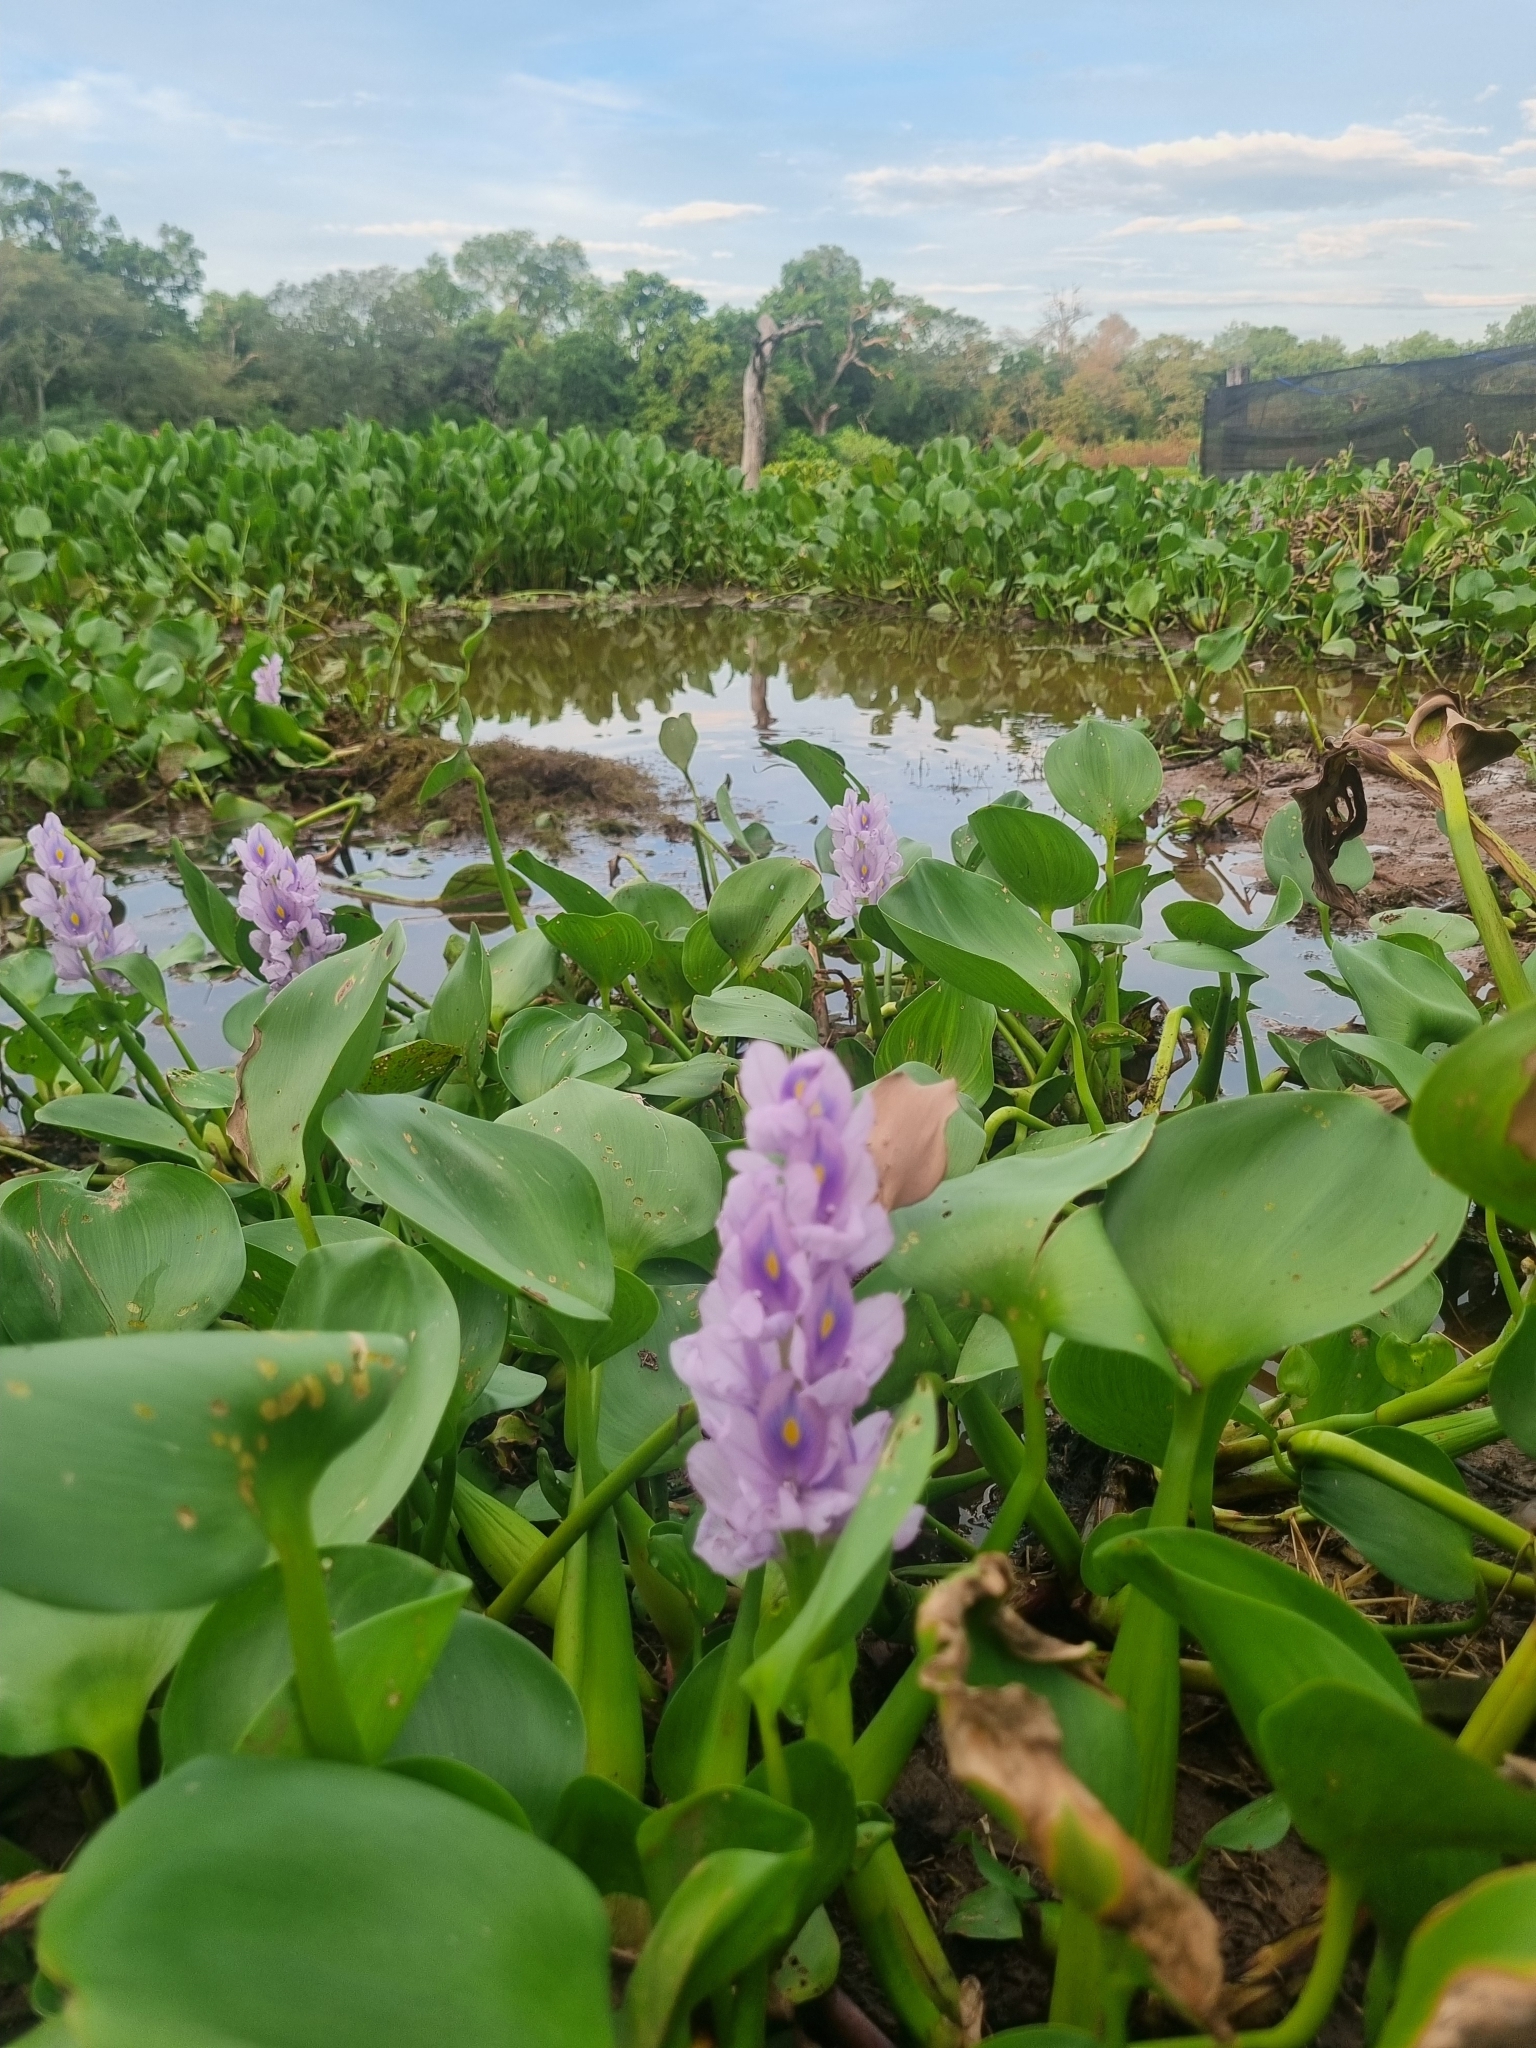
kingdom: Plantae
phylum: Tracheophyta
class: Liliopsida
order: Commelinales
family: Pontederiaceae
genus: Pontederia
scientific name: Pontederia crassipes
